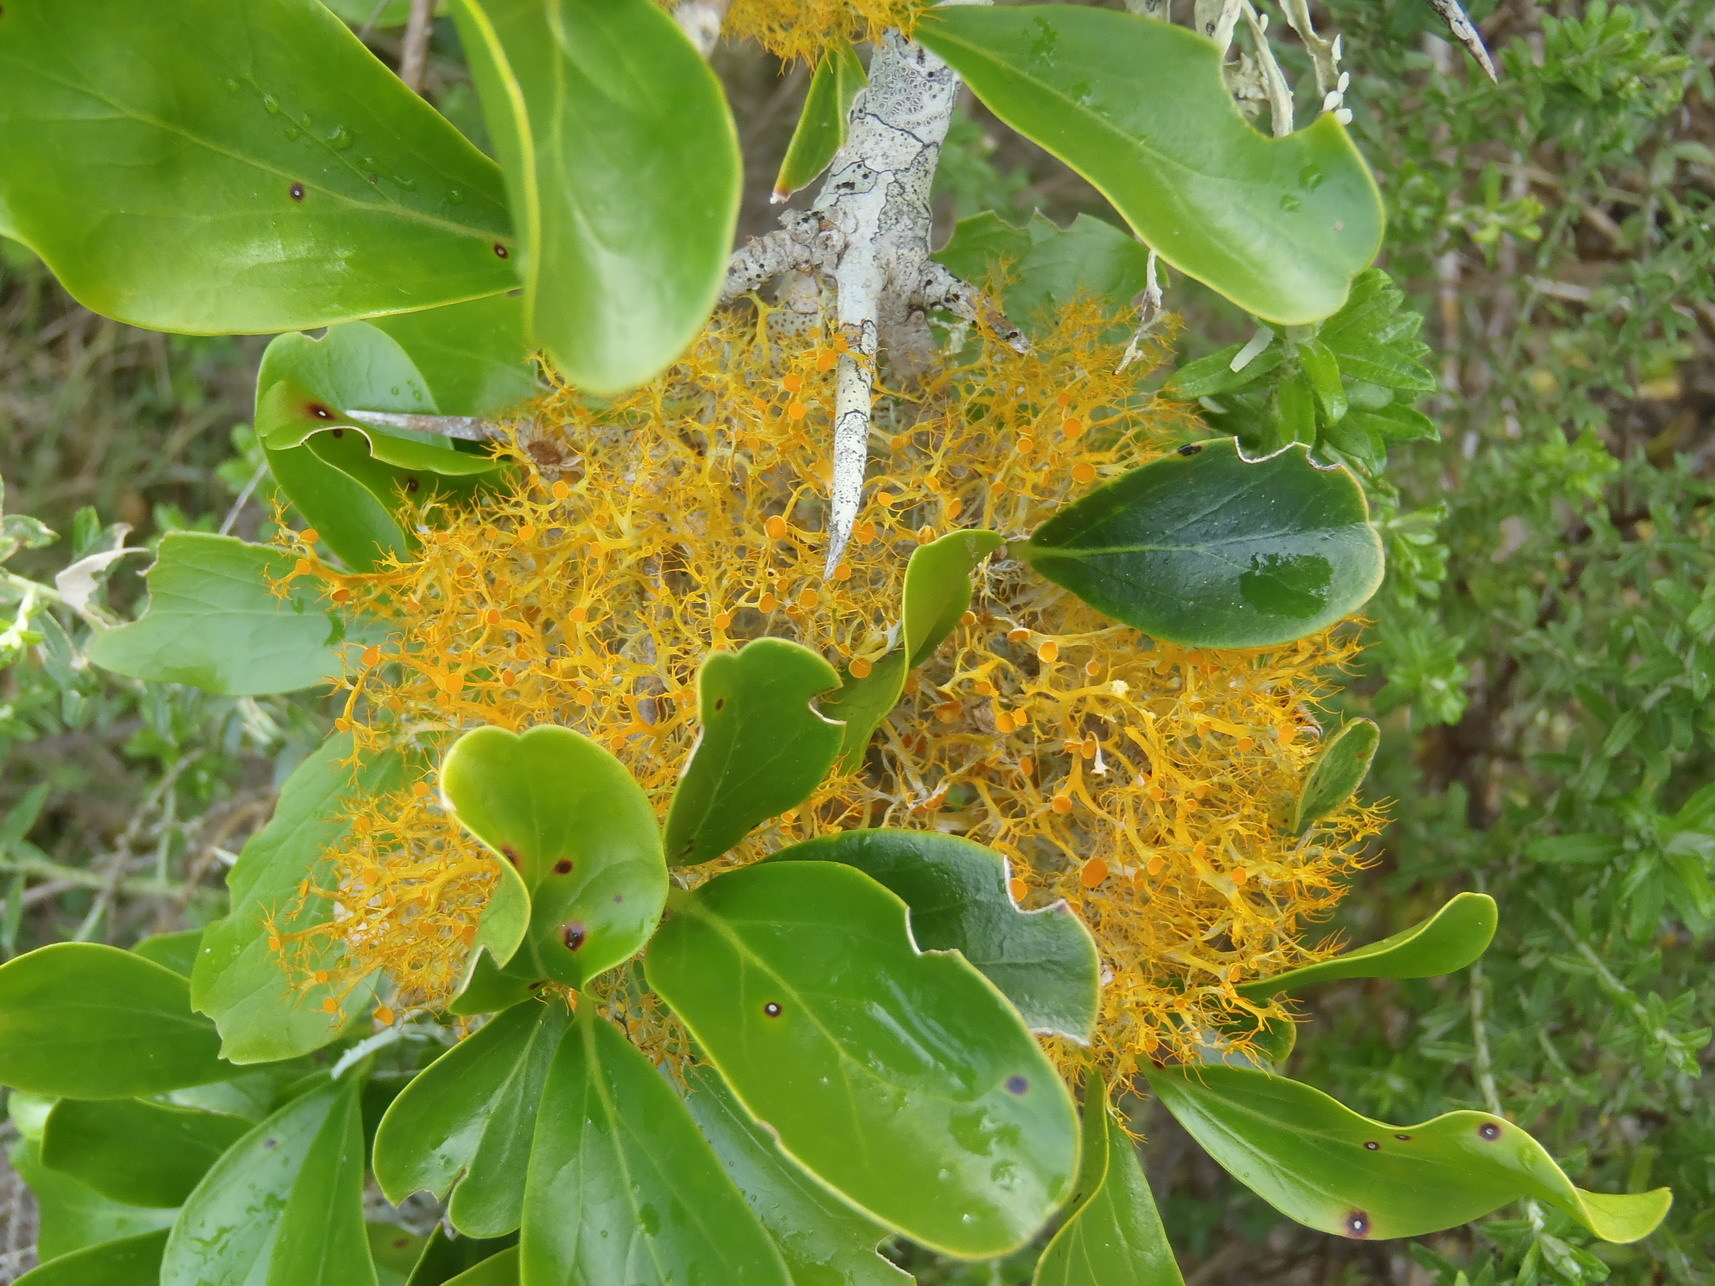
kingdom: Fungi
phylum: Ascomycota
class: Lecanoromycetes
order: Teloschistales
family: Teloschistaceae
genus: Teloschistes
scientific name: Teloschistes pulvinaris
